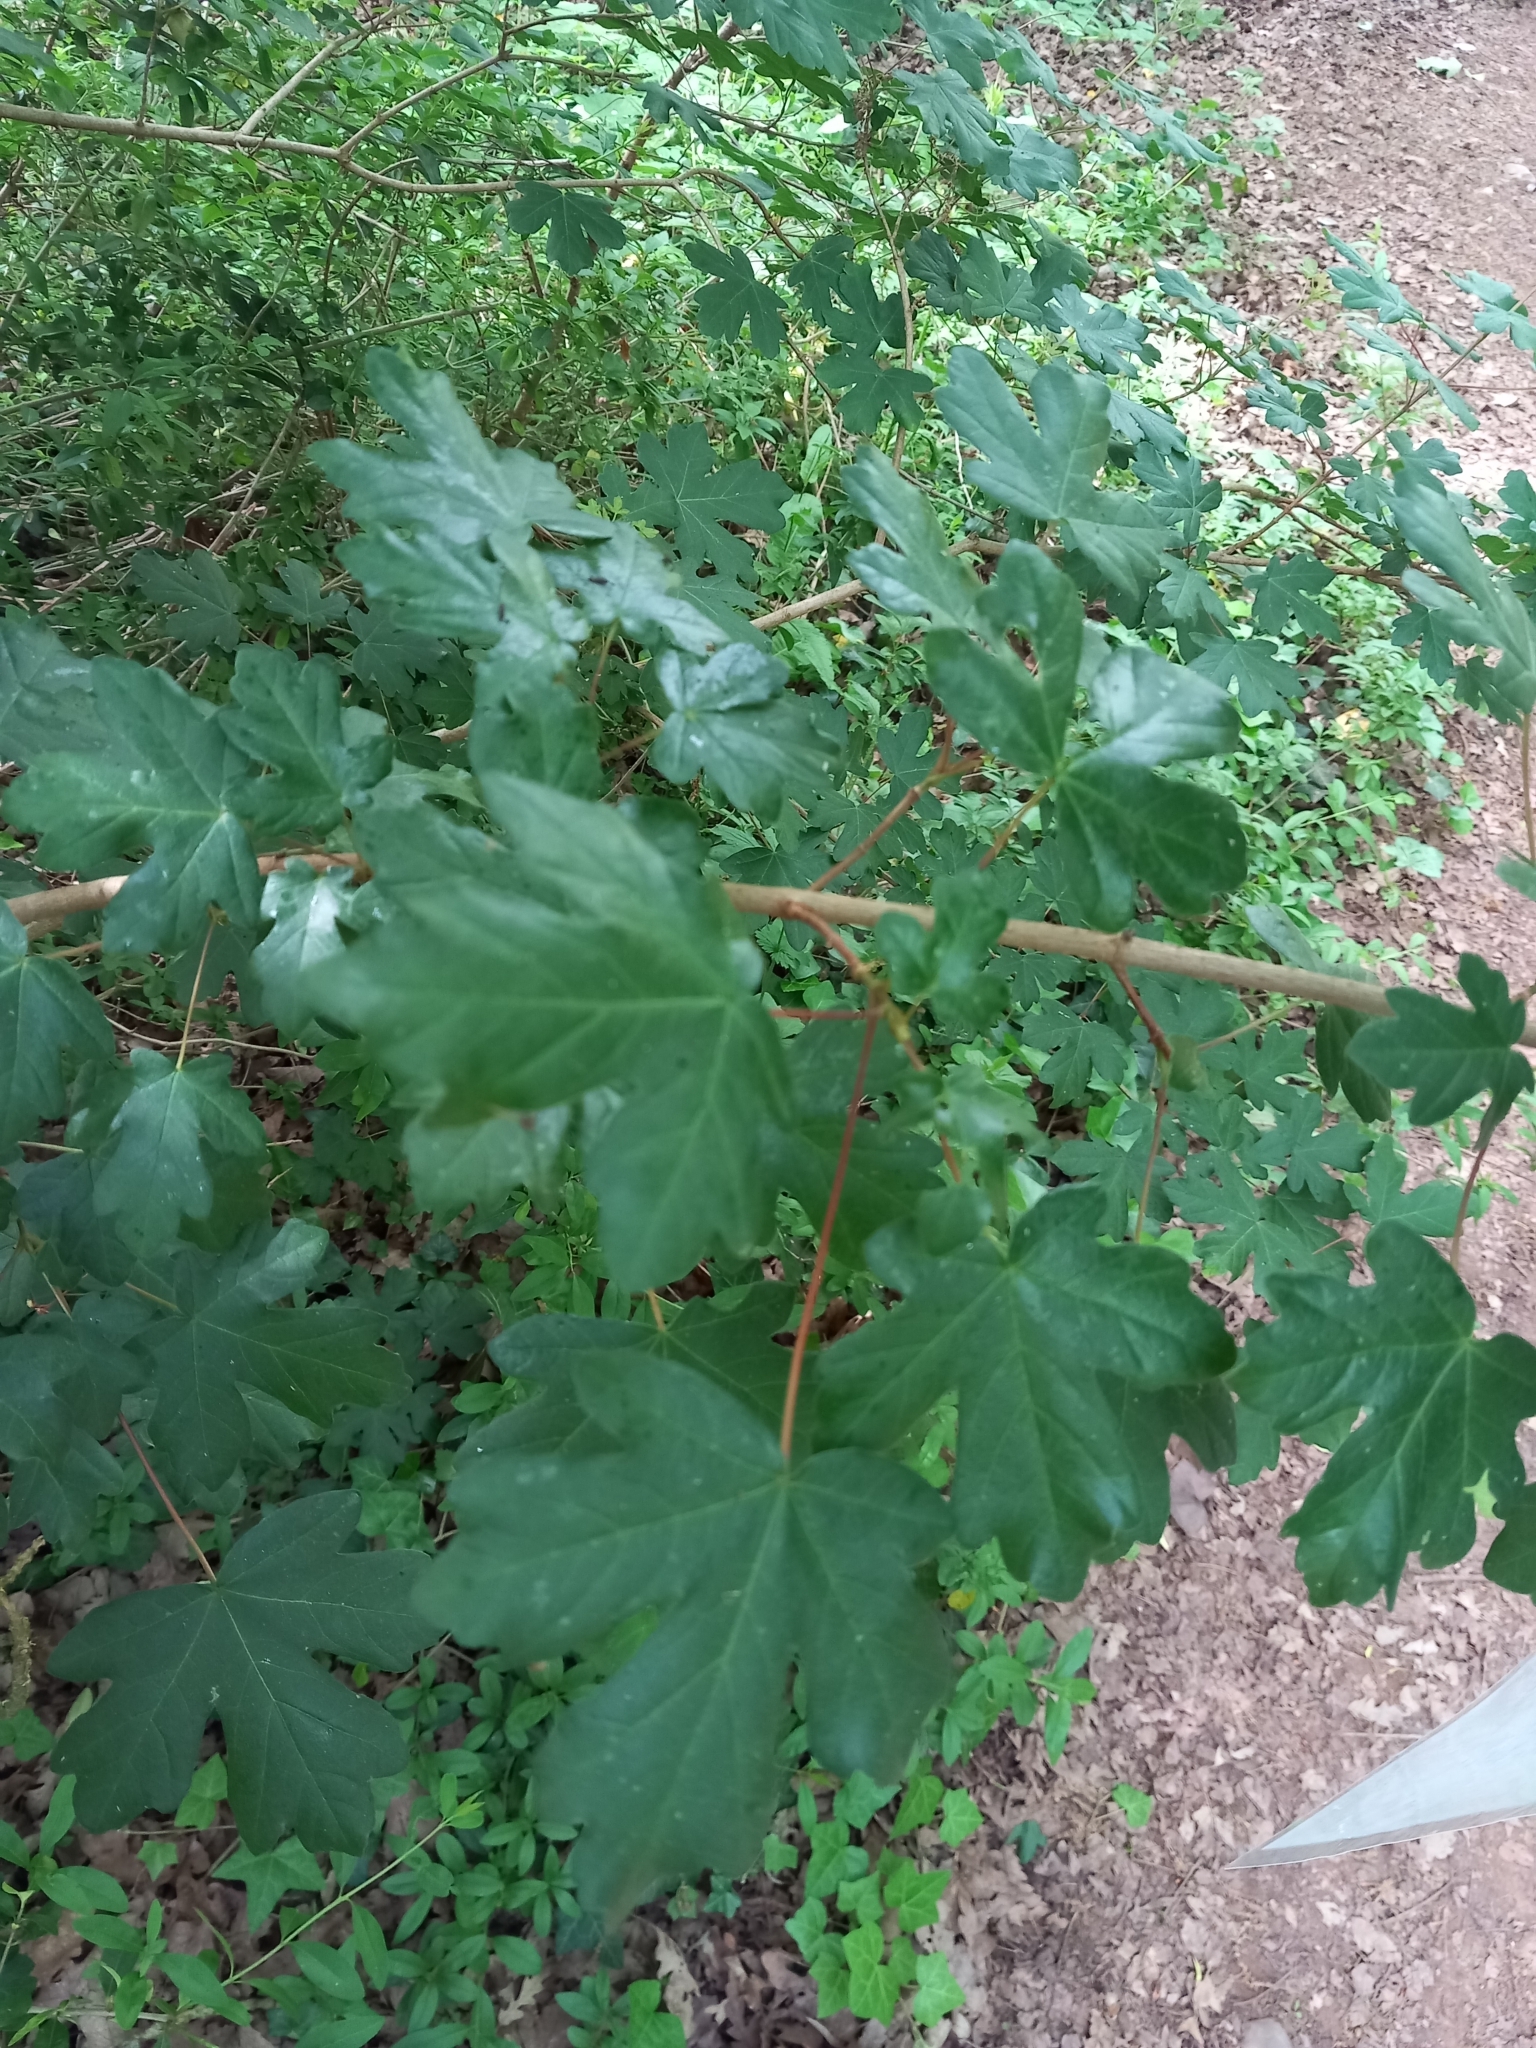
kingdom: Plantae
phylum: Tracheophyta
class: Magnoliopsida
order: Sapindales
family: Sapindaceae
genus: Acer
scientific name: Acer campestre
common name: Field maple
